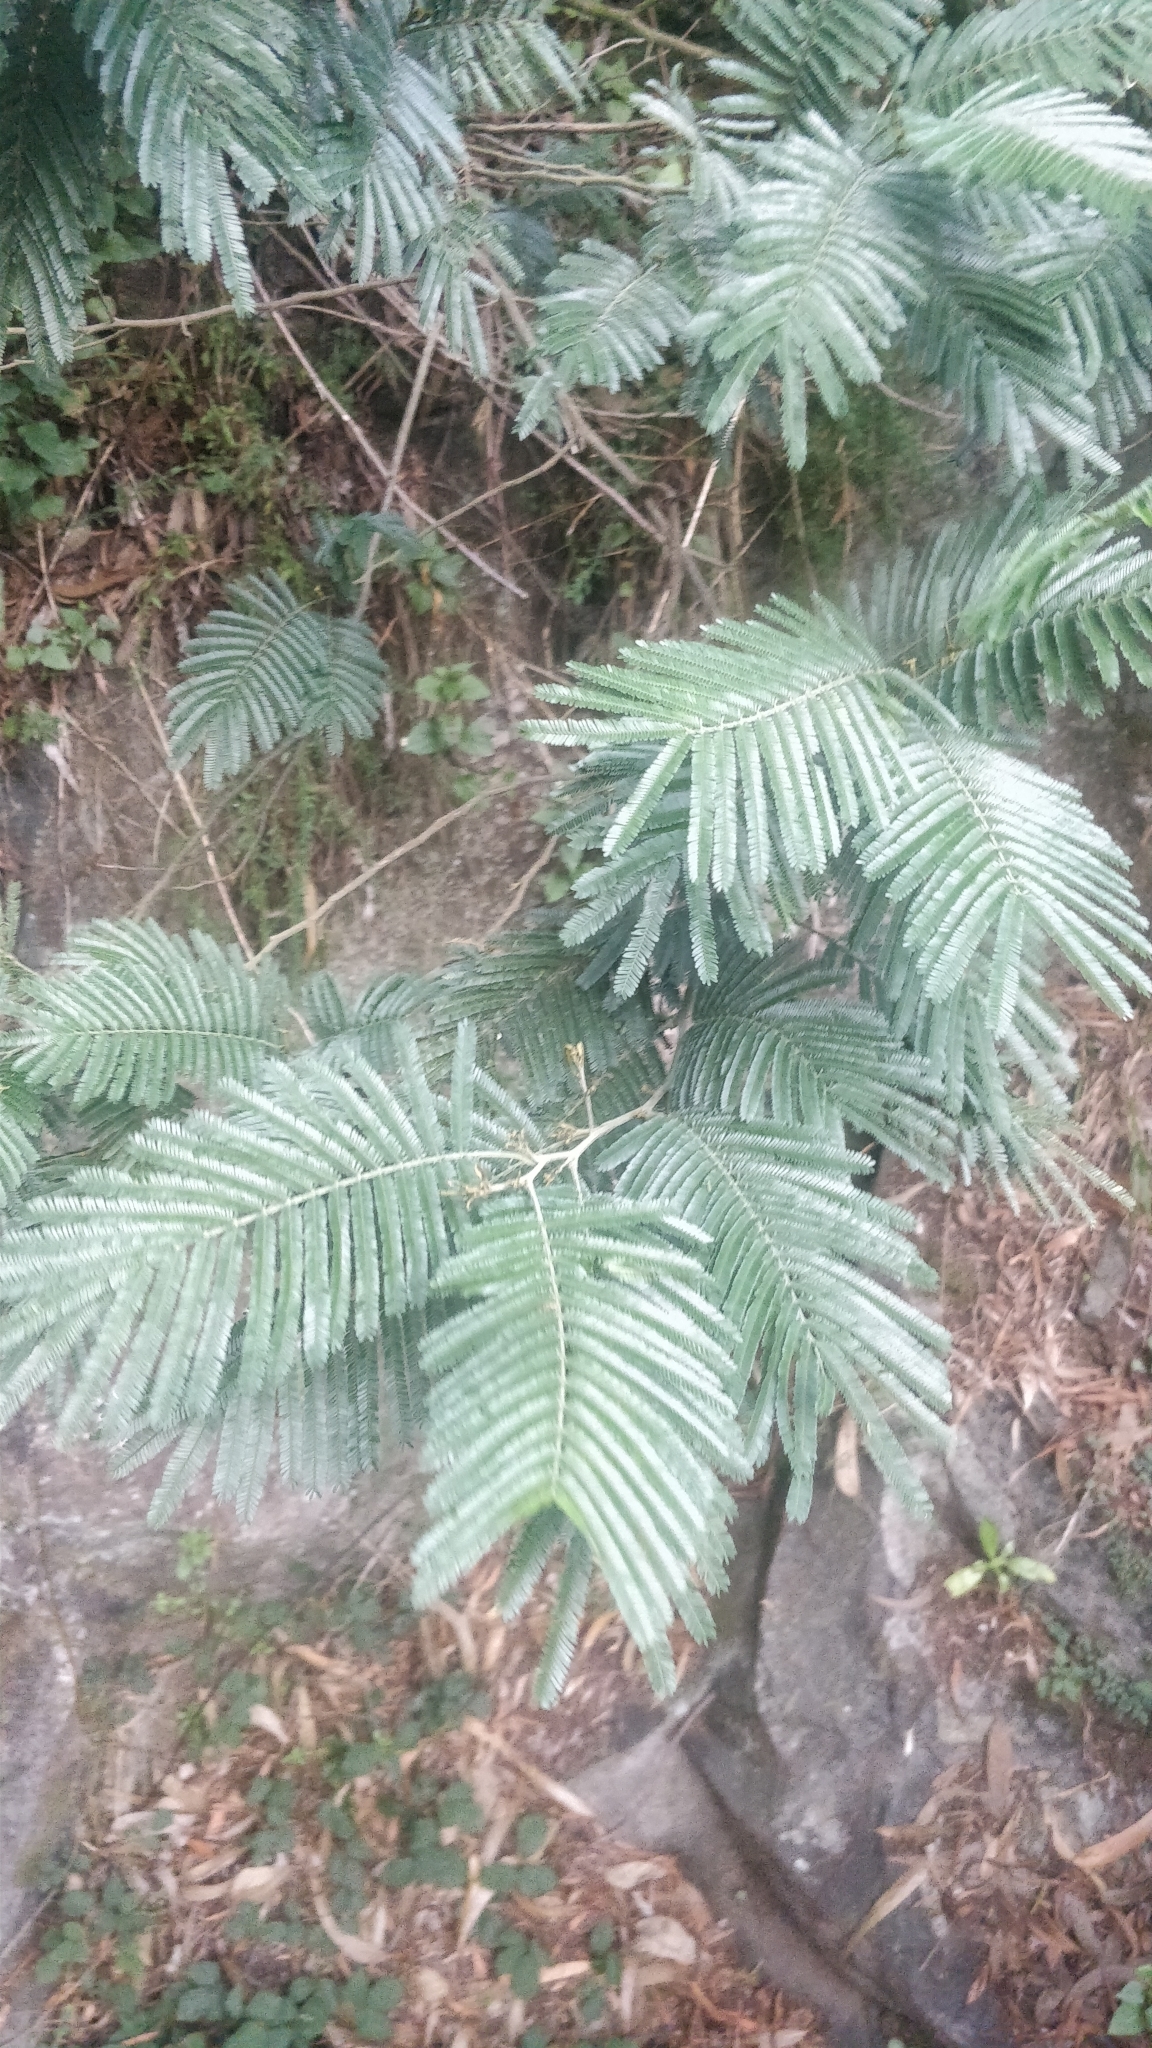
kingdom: Plantae
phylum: Tracheophyta
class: Magnoliopsida
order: Fabales
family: Fabaceae
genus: Acacia
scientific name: Acacia mearnsii
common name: Black wattle
